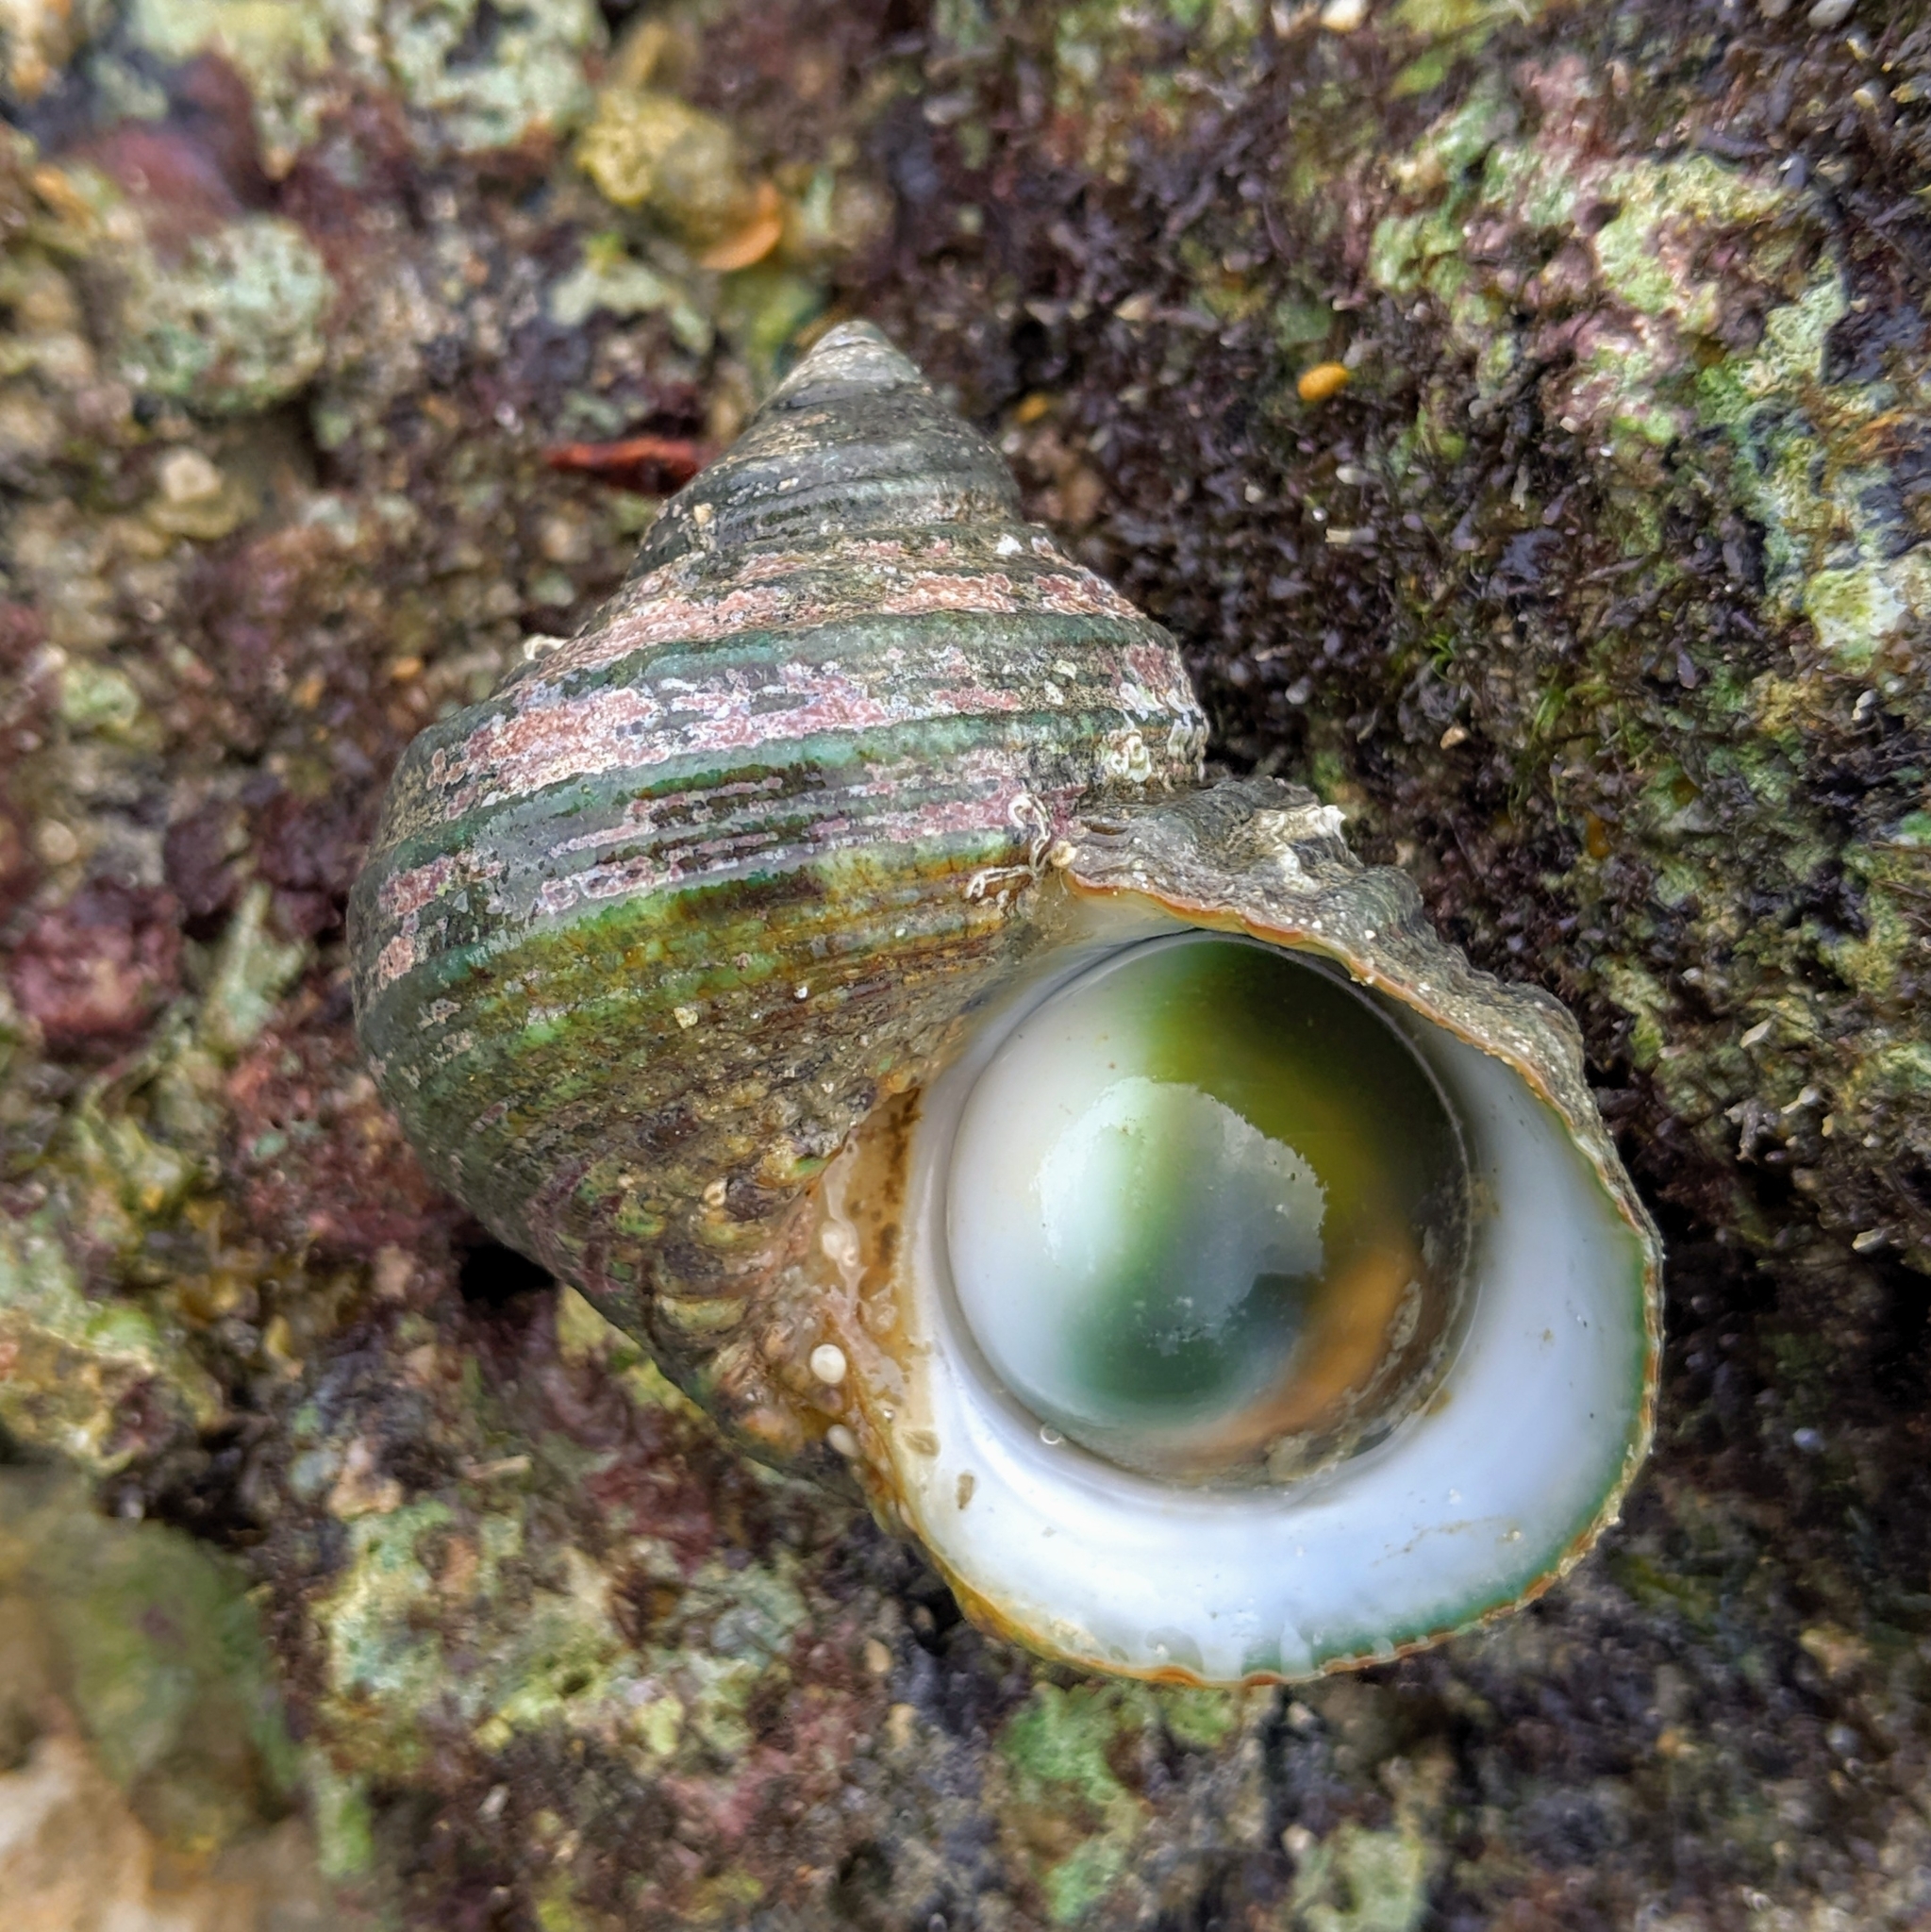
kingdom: Animalia
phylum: Mollusca
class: Gastropoda
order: Trochida
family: Turbinidae
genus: Turbo
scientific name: Turbo bruneus
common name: Brown pacific turban
